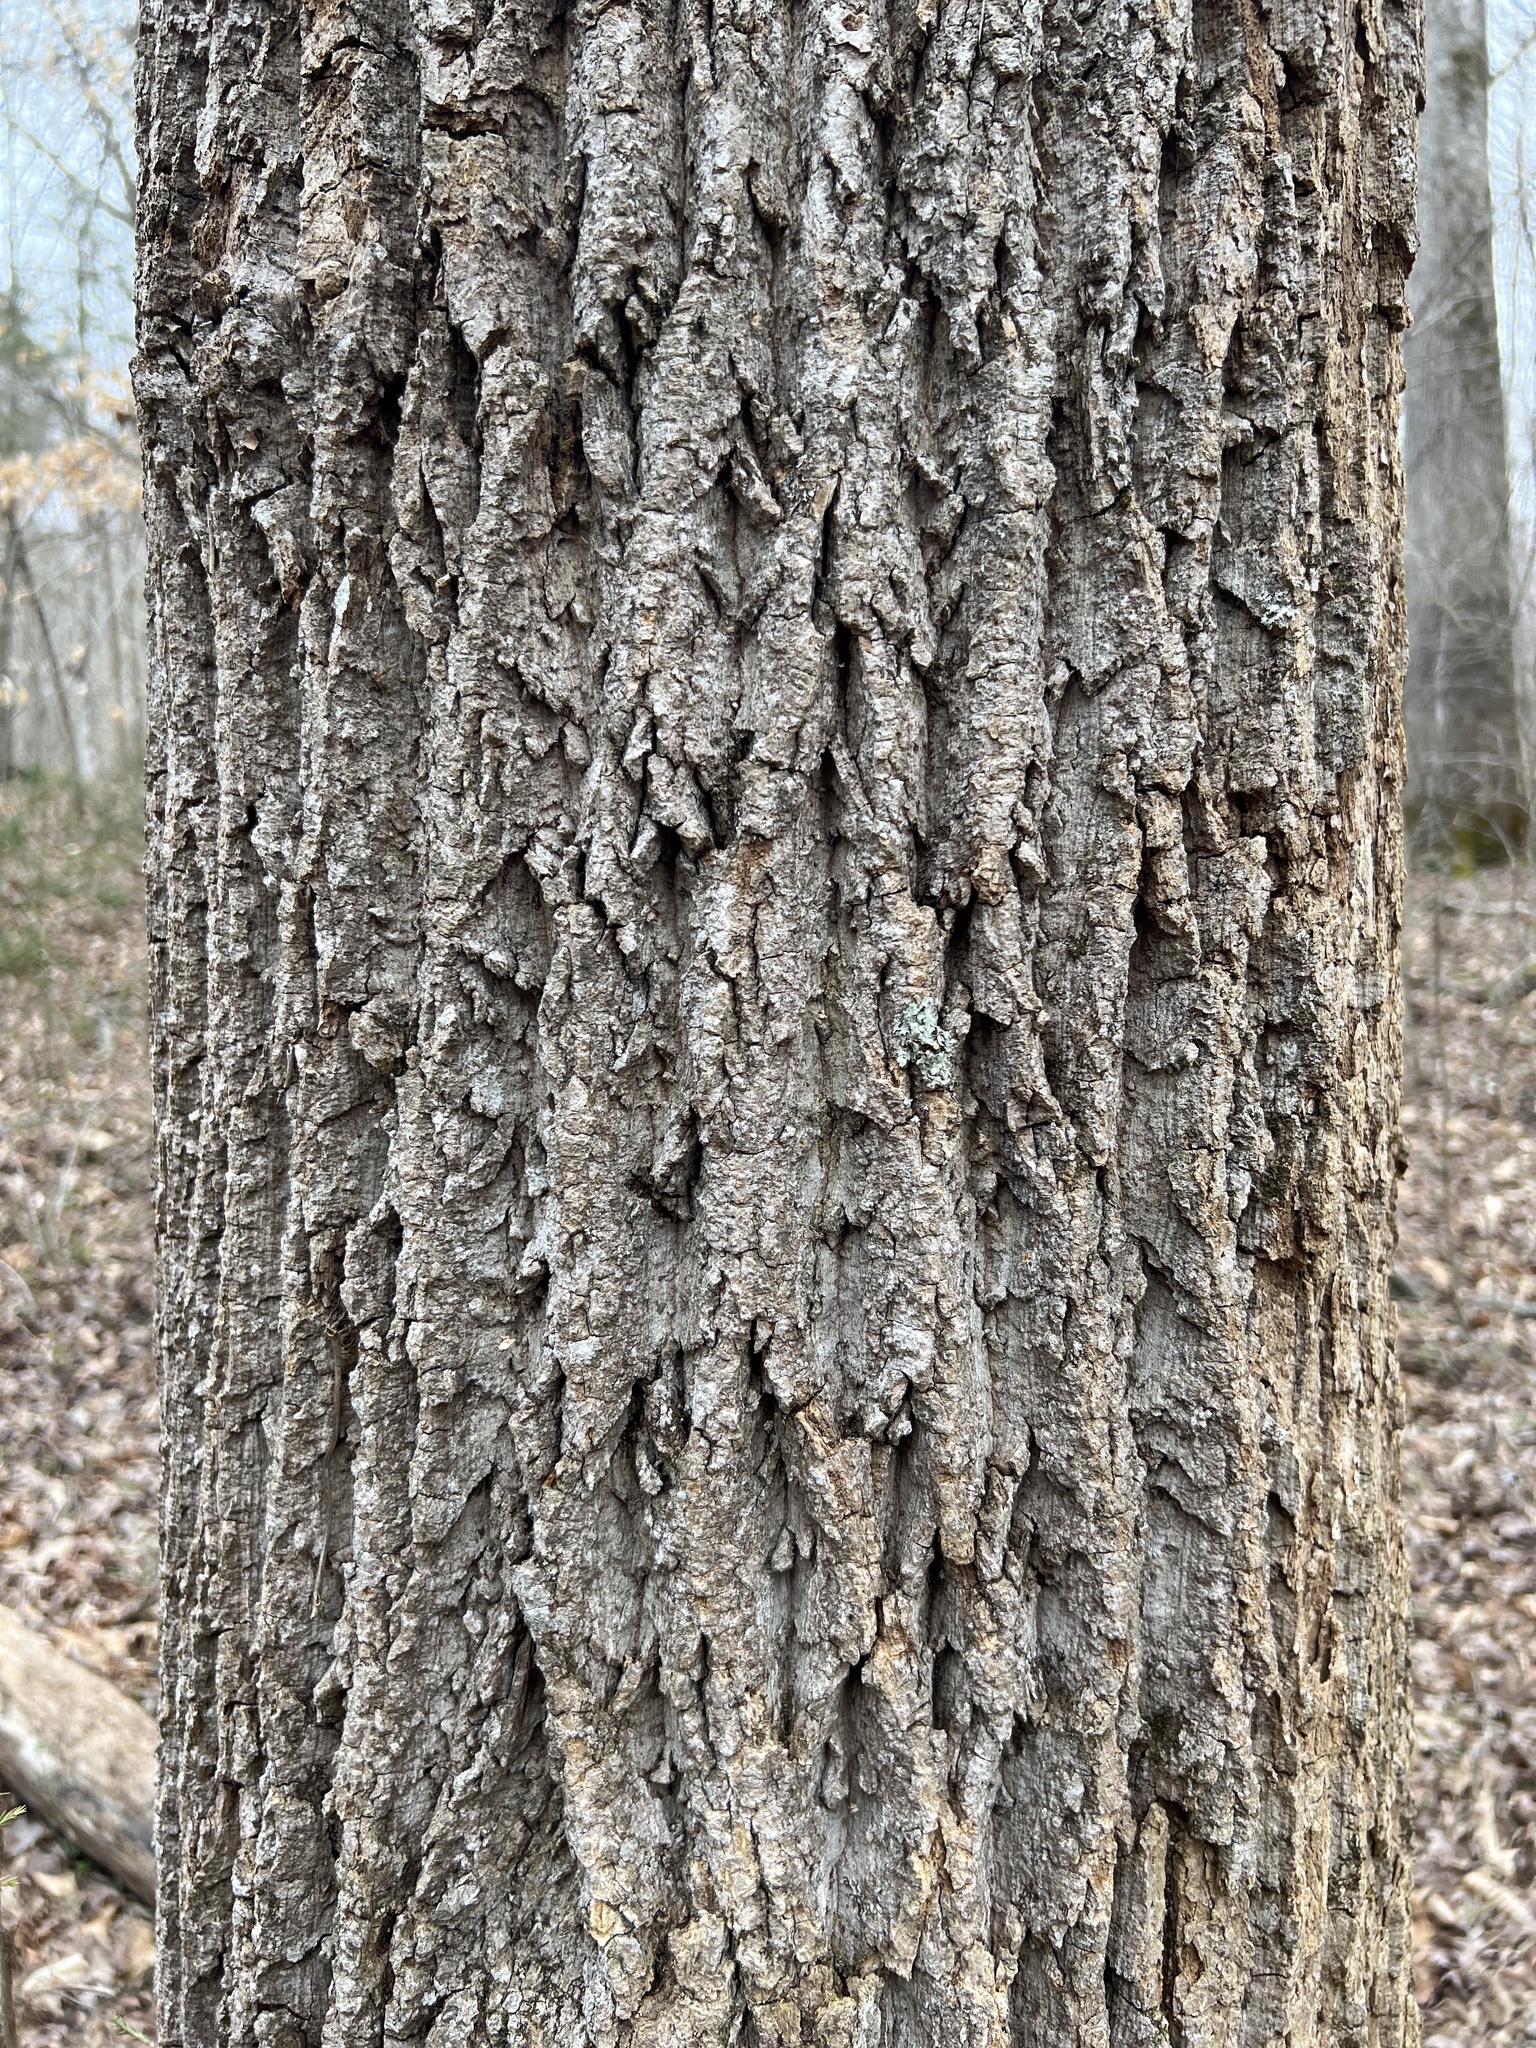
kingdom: Plantae
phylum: Tracheophyta
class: Magnoliopsida
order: Magnoliales
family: Magnoliaceae
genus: Liriodendron
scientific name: Liriodendron tulipifera
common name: Tulip tree
